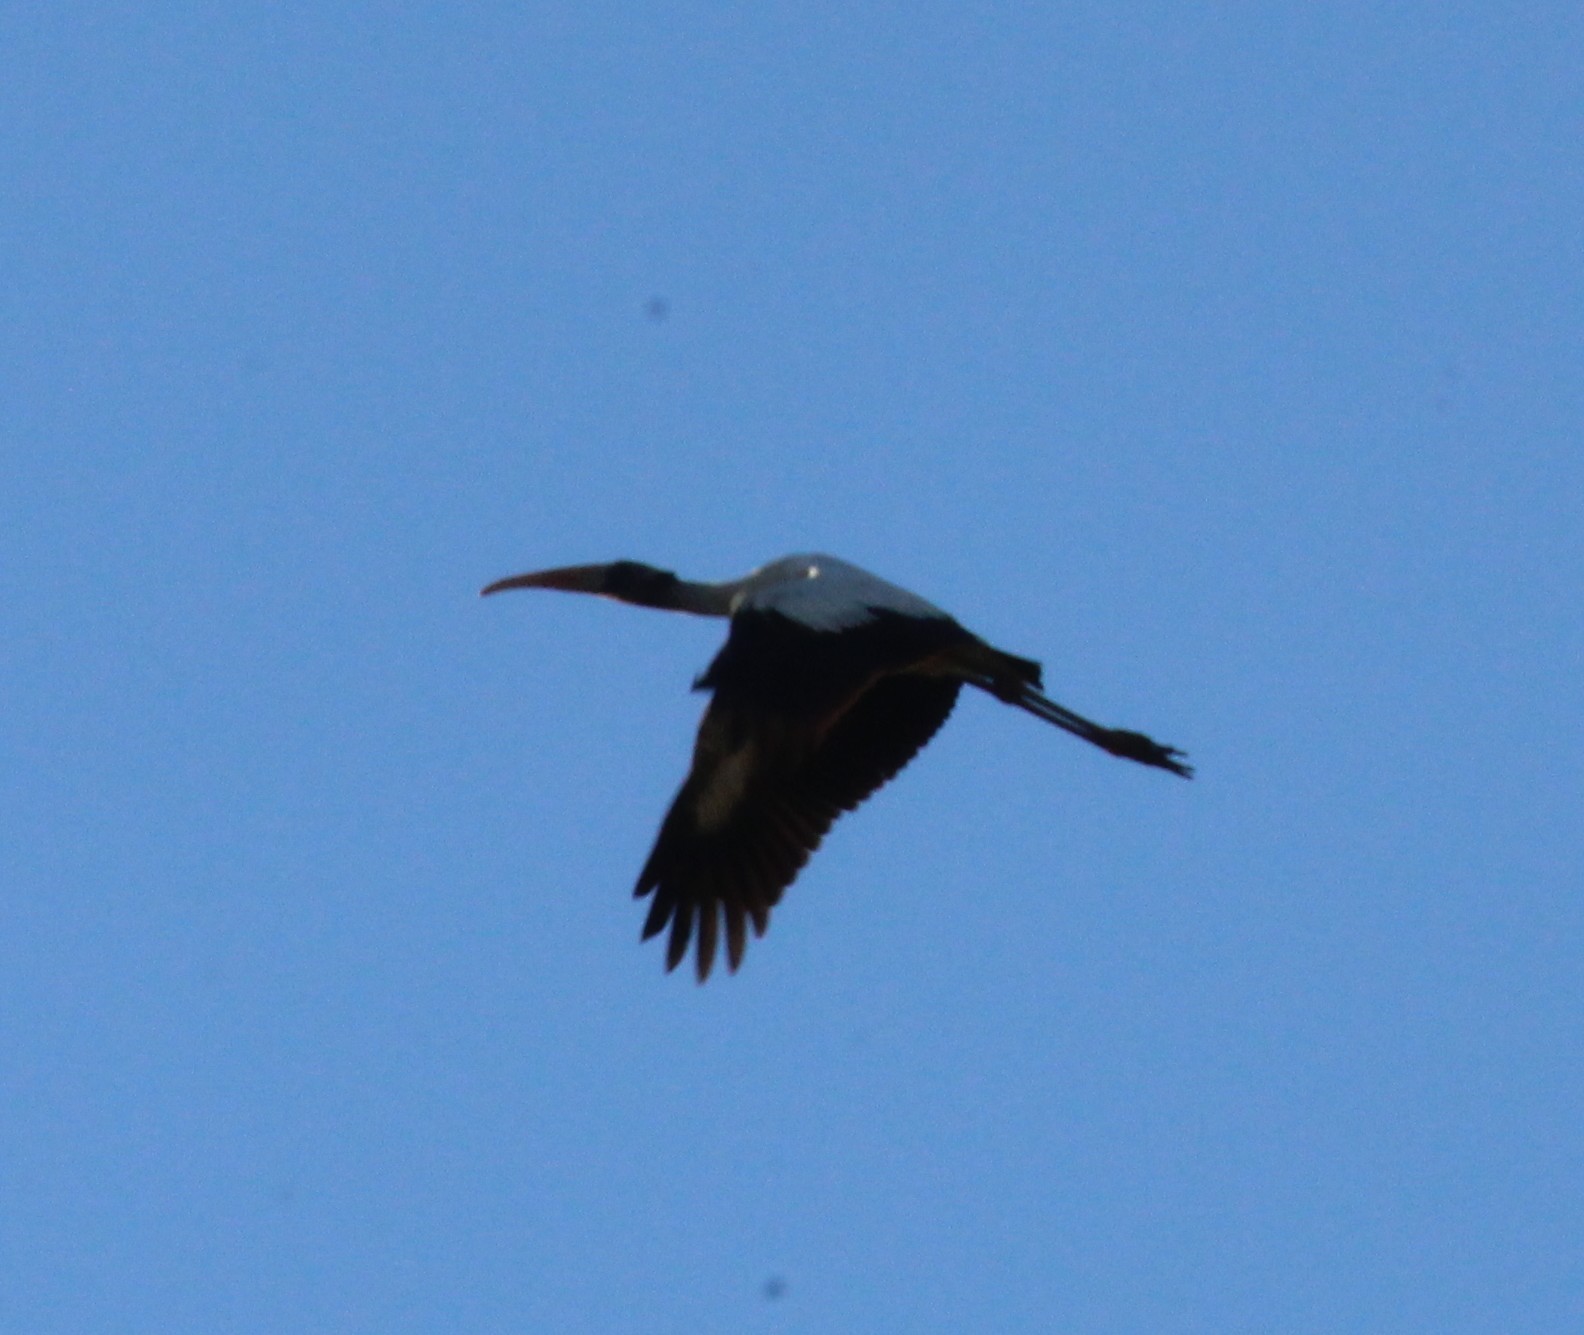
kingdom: Animalia
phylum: Chordata
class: Aves
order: Ciconiiformes
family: Ciconiidae
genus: Mycteria
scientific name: Mycteria americana
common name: Wood stork
